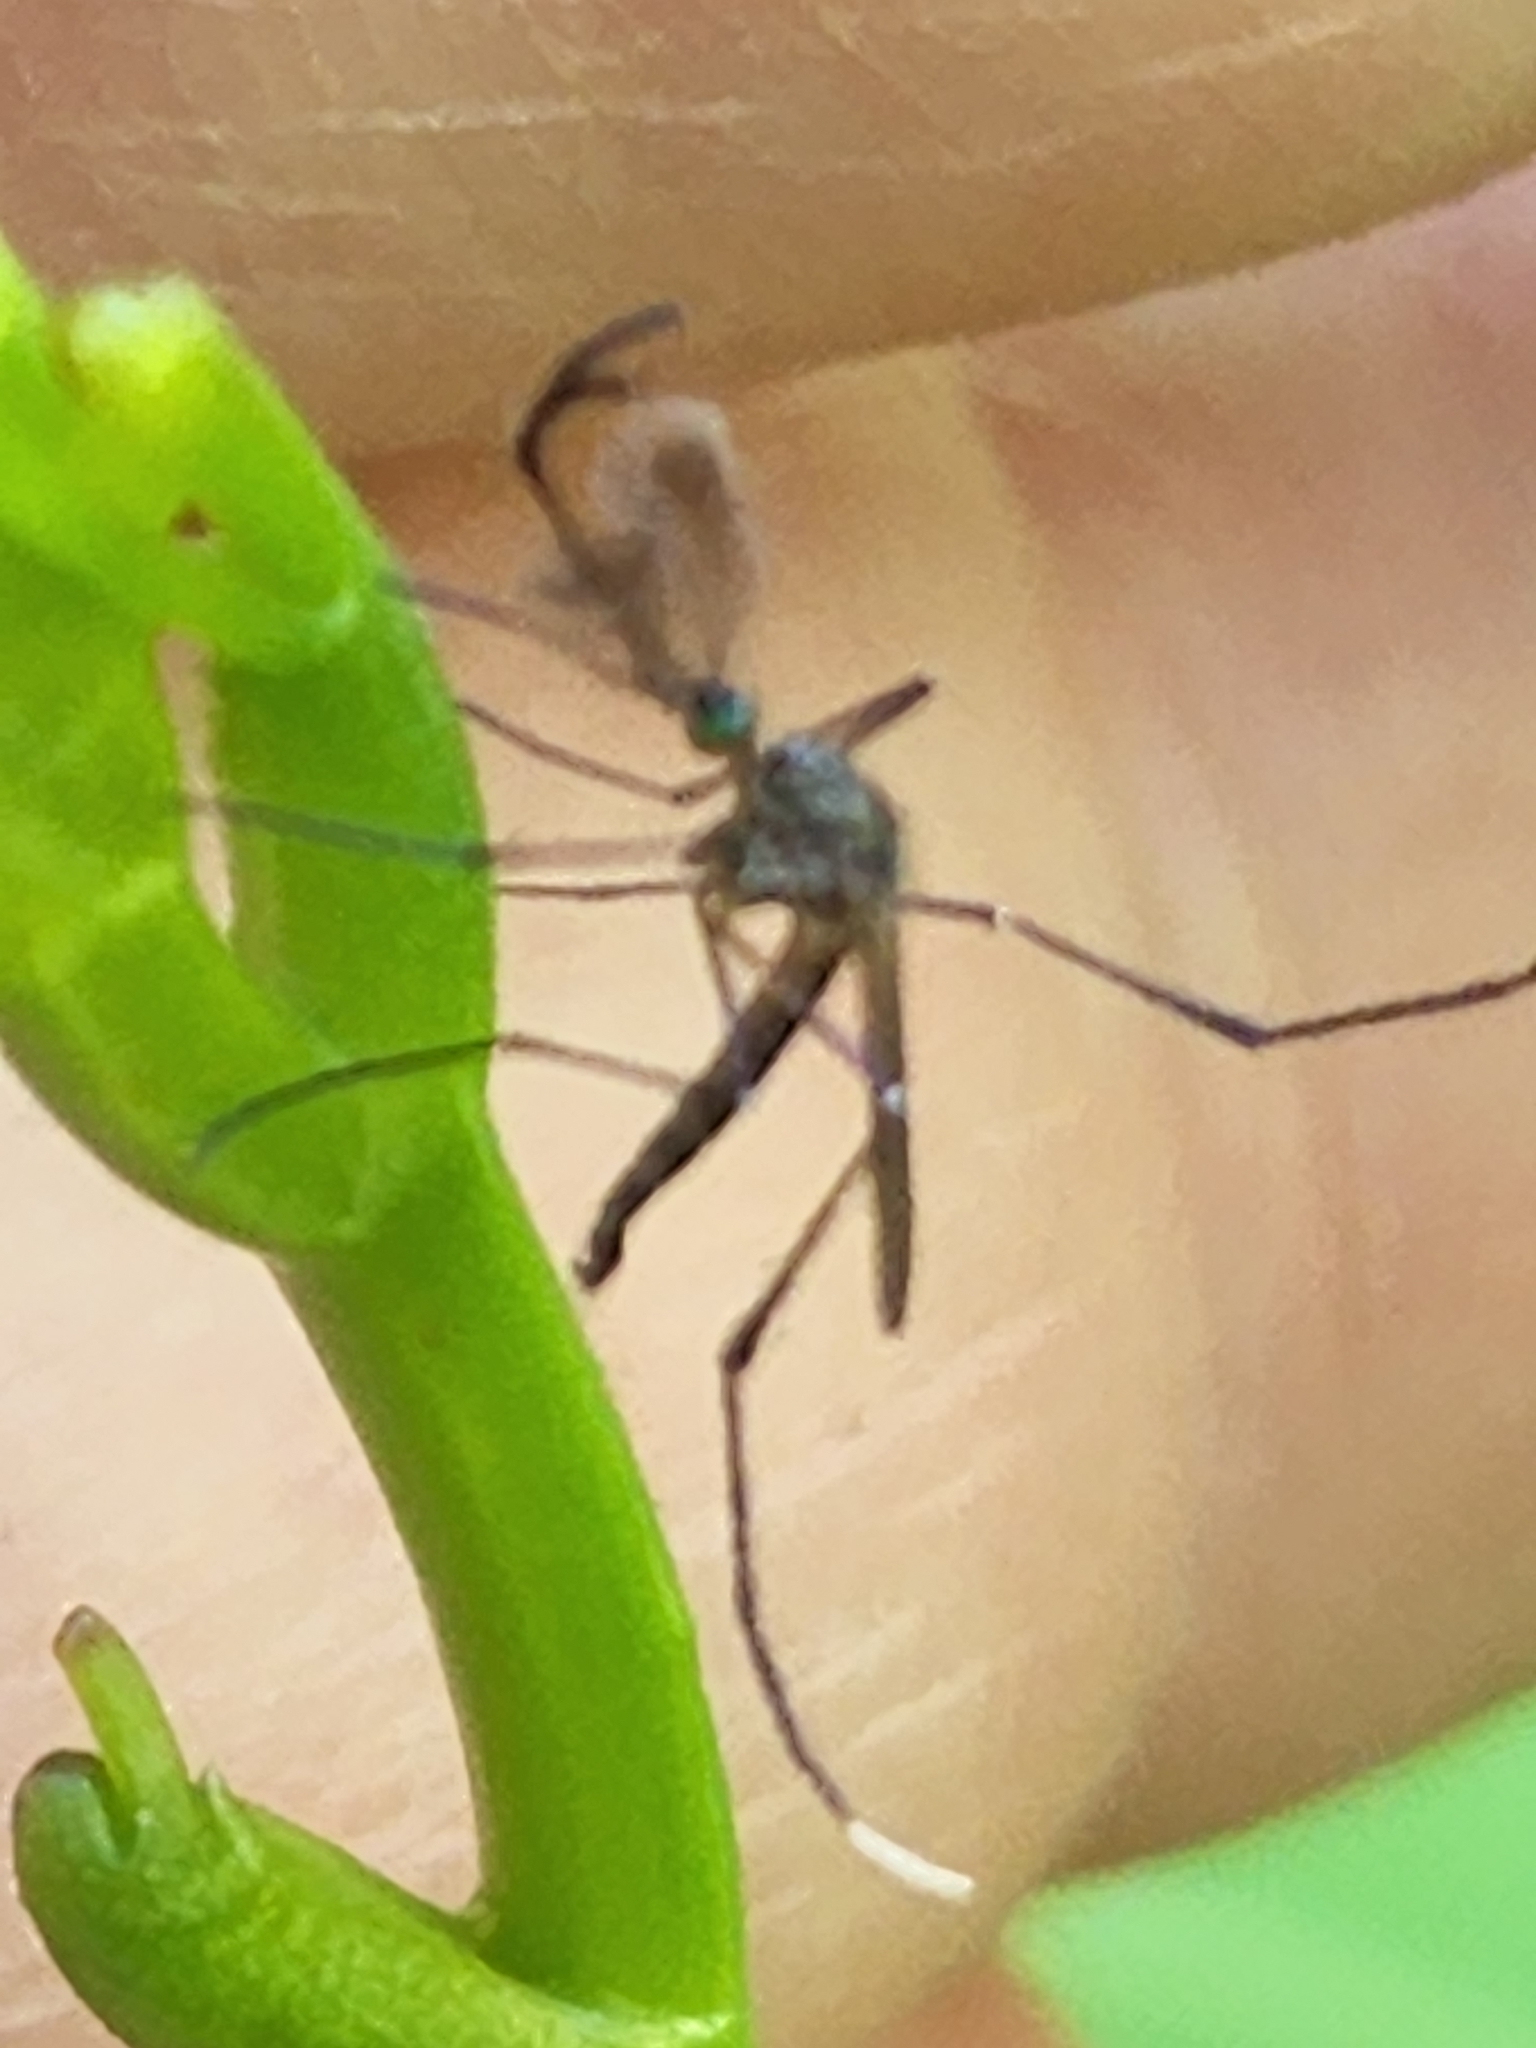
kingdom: Animalia
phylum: Arthropoda
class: Insecta
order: Diptera
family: Culicidae
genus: Psorophora
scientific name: Psorophora ferox
